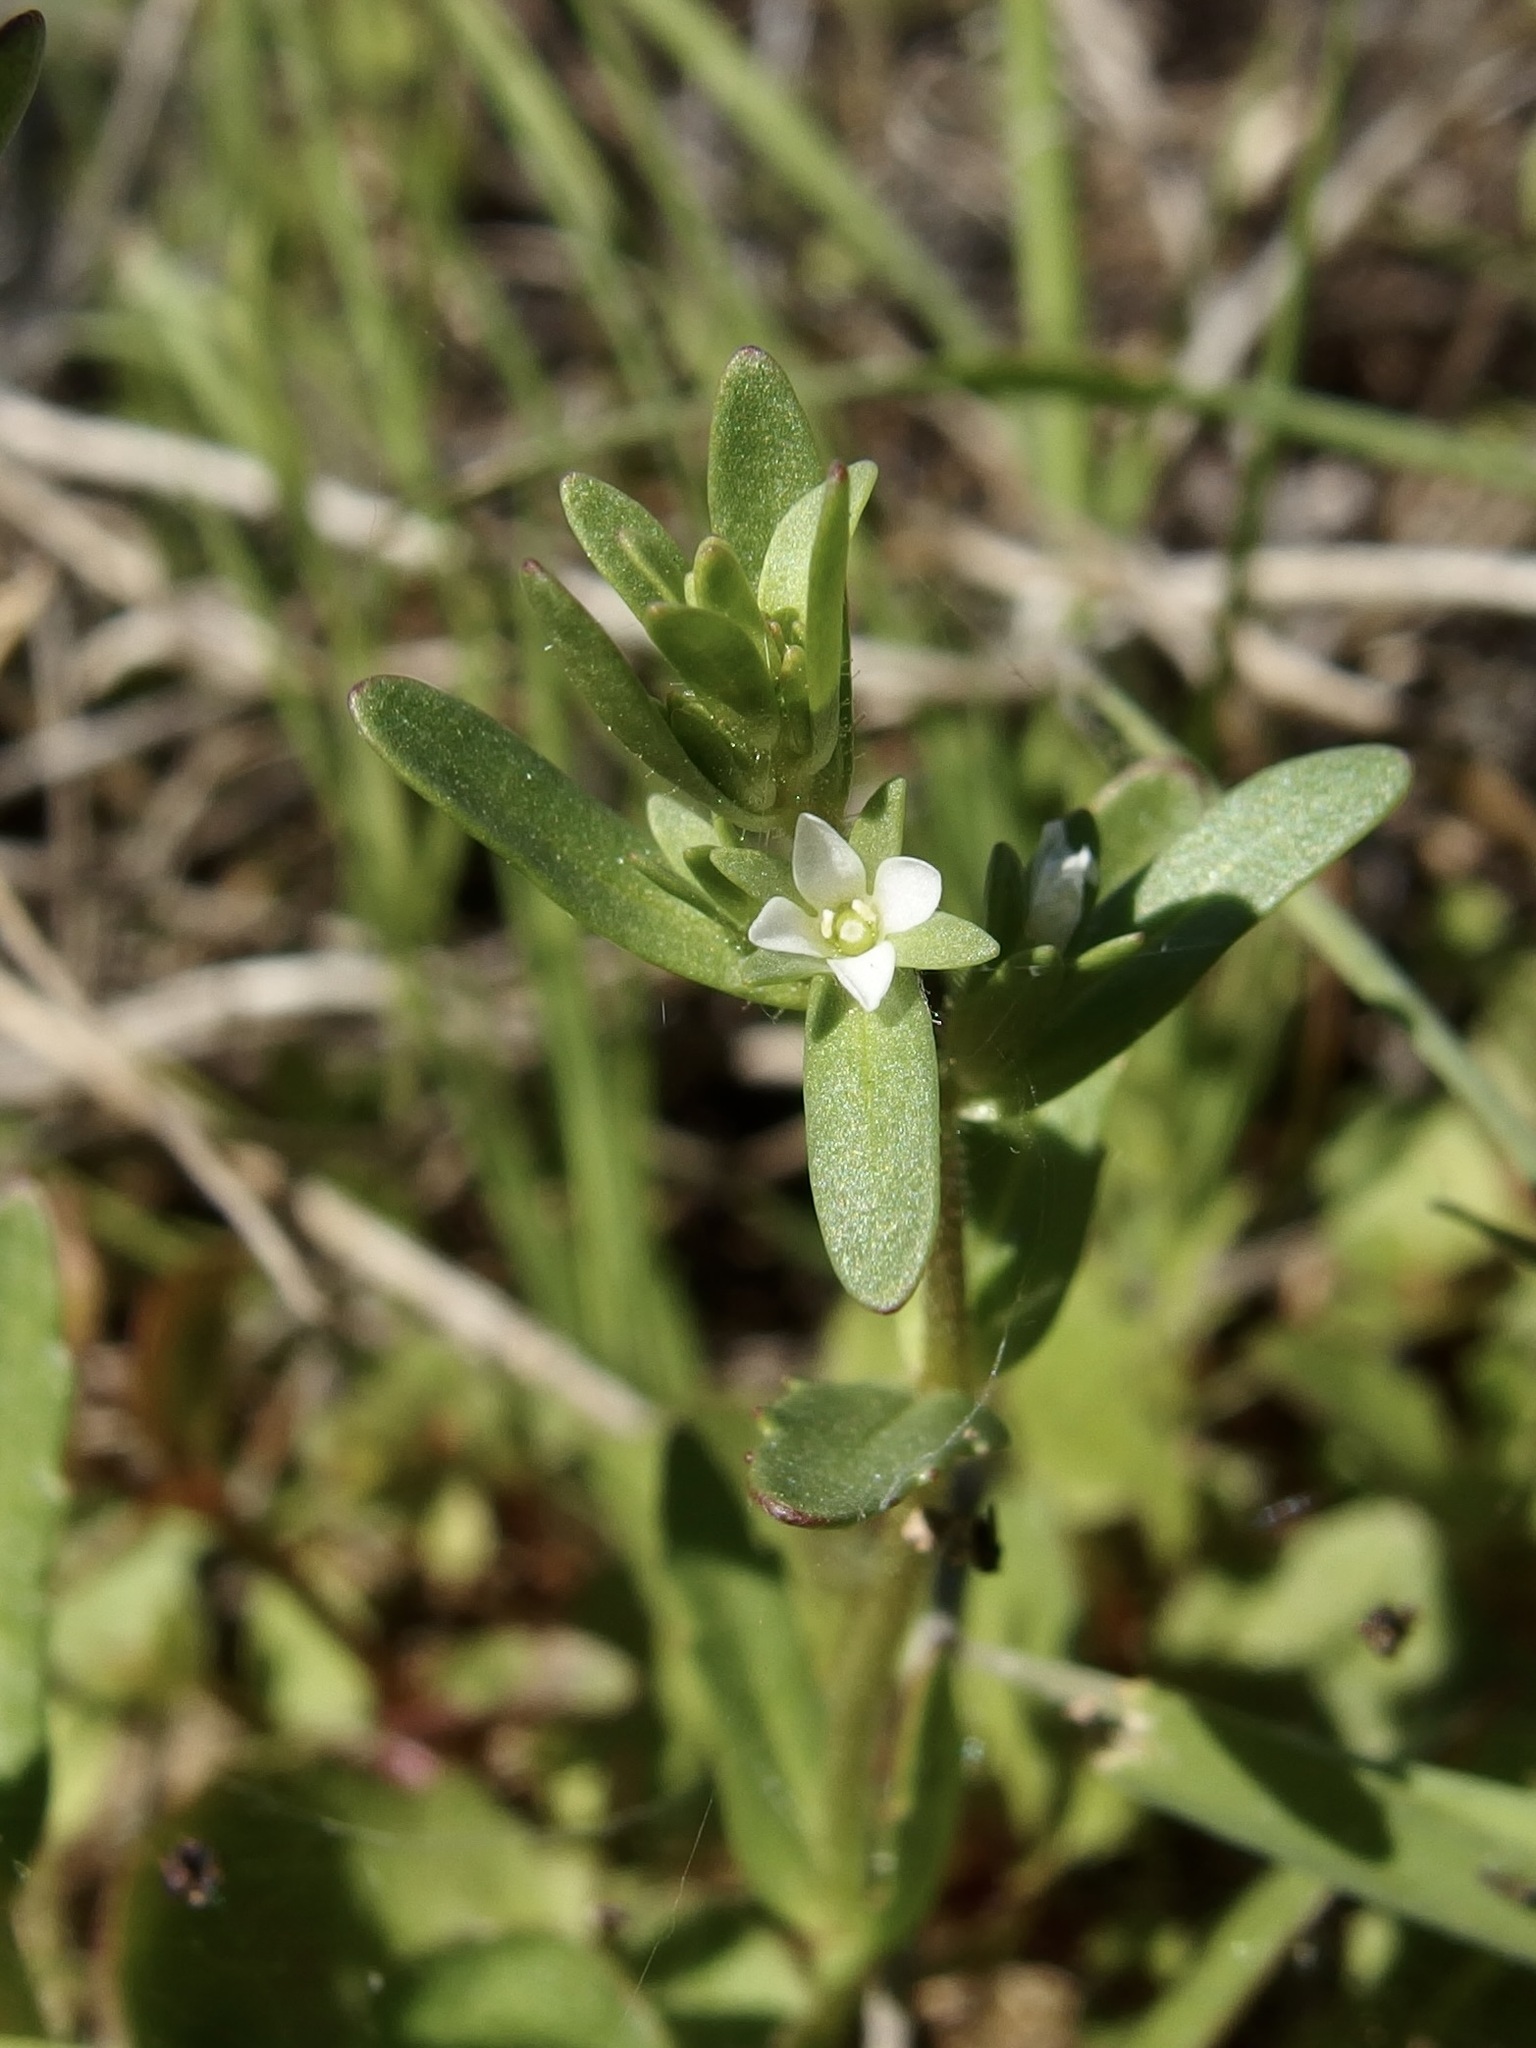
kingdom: Plantae
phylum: Tracheophyta
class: Magnoliopsida
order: Lamiales
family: Plantaginaceae
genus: Veronica
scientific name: Veronica peregrina
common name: Neckweed
